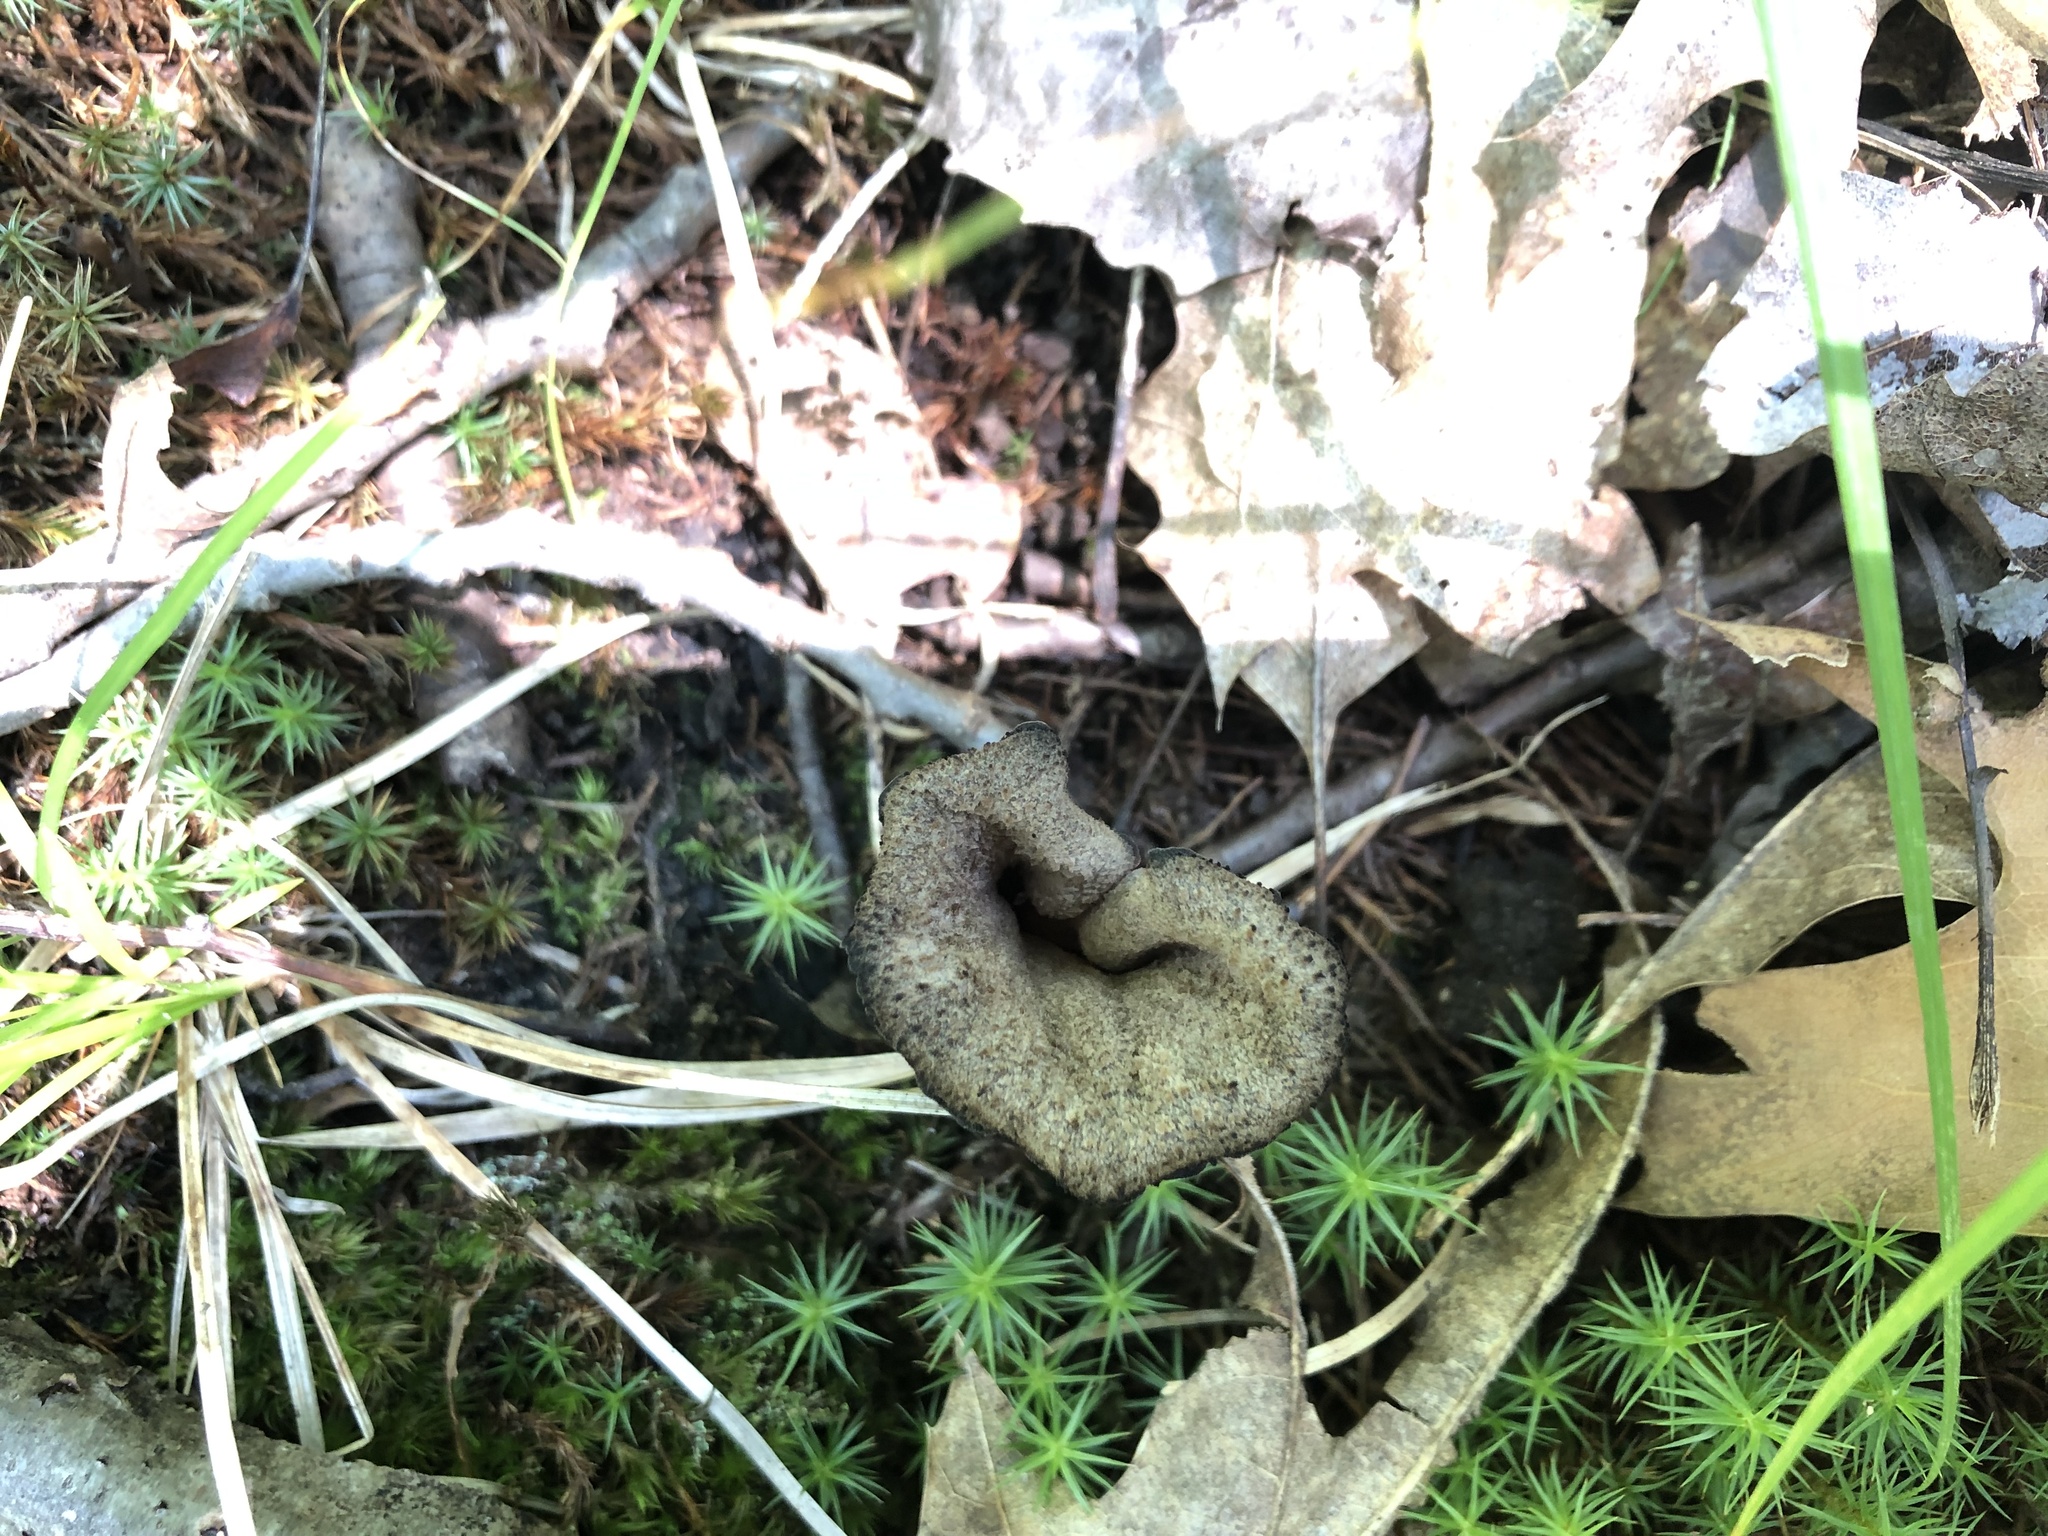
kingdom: Fungi
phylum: Basidiomycota
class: Agaricomycetes
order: Cantharellales
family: Hydnaceae
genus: Craterellus
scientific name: Craterellus cornucopioides
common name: Horn of plenty
